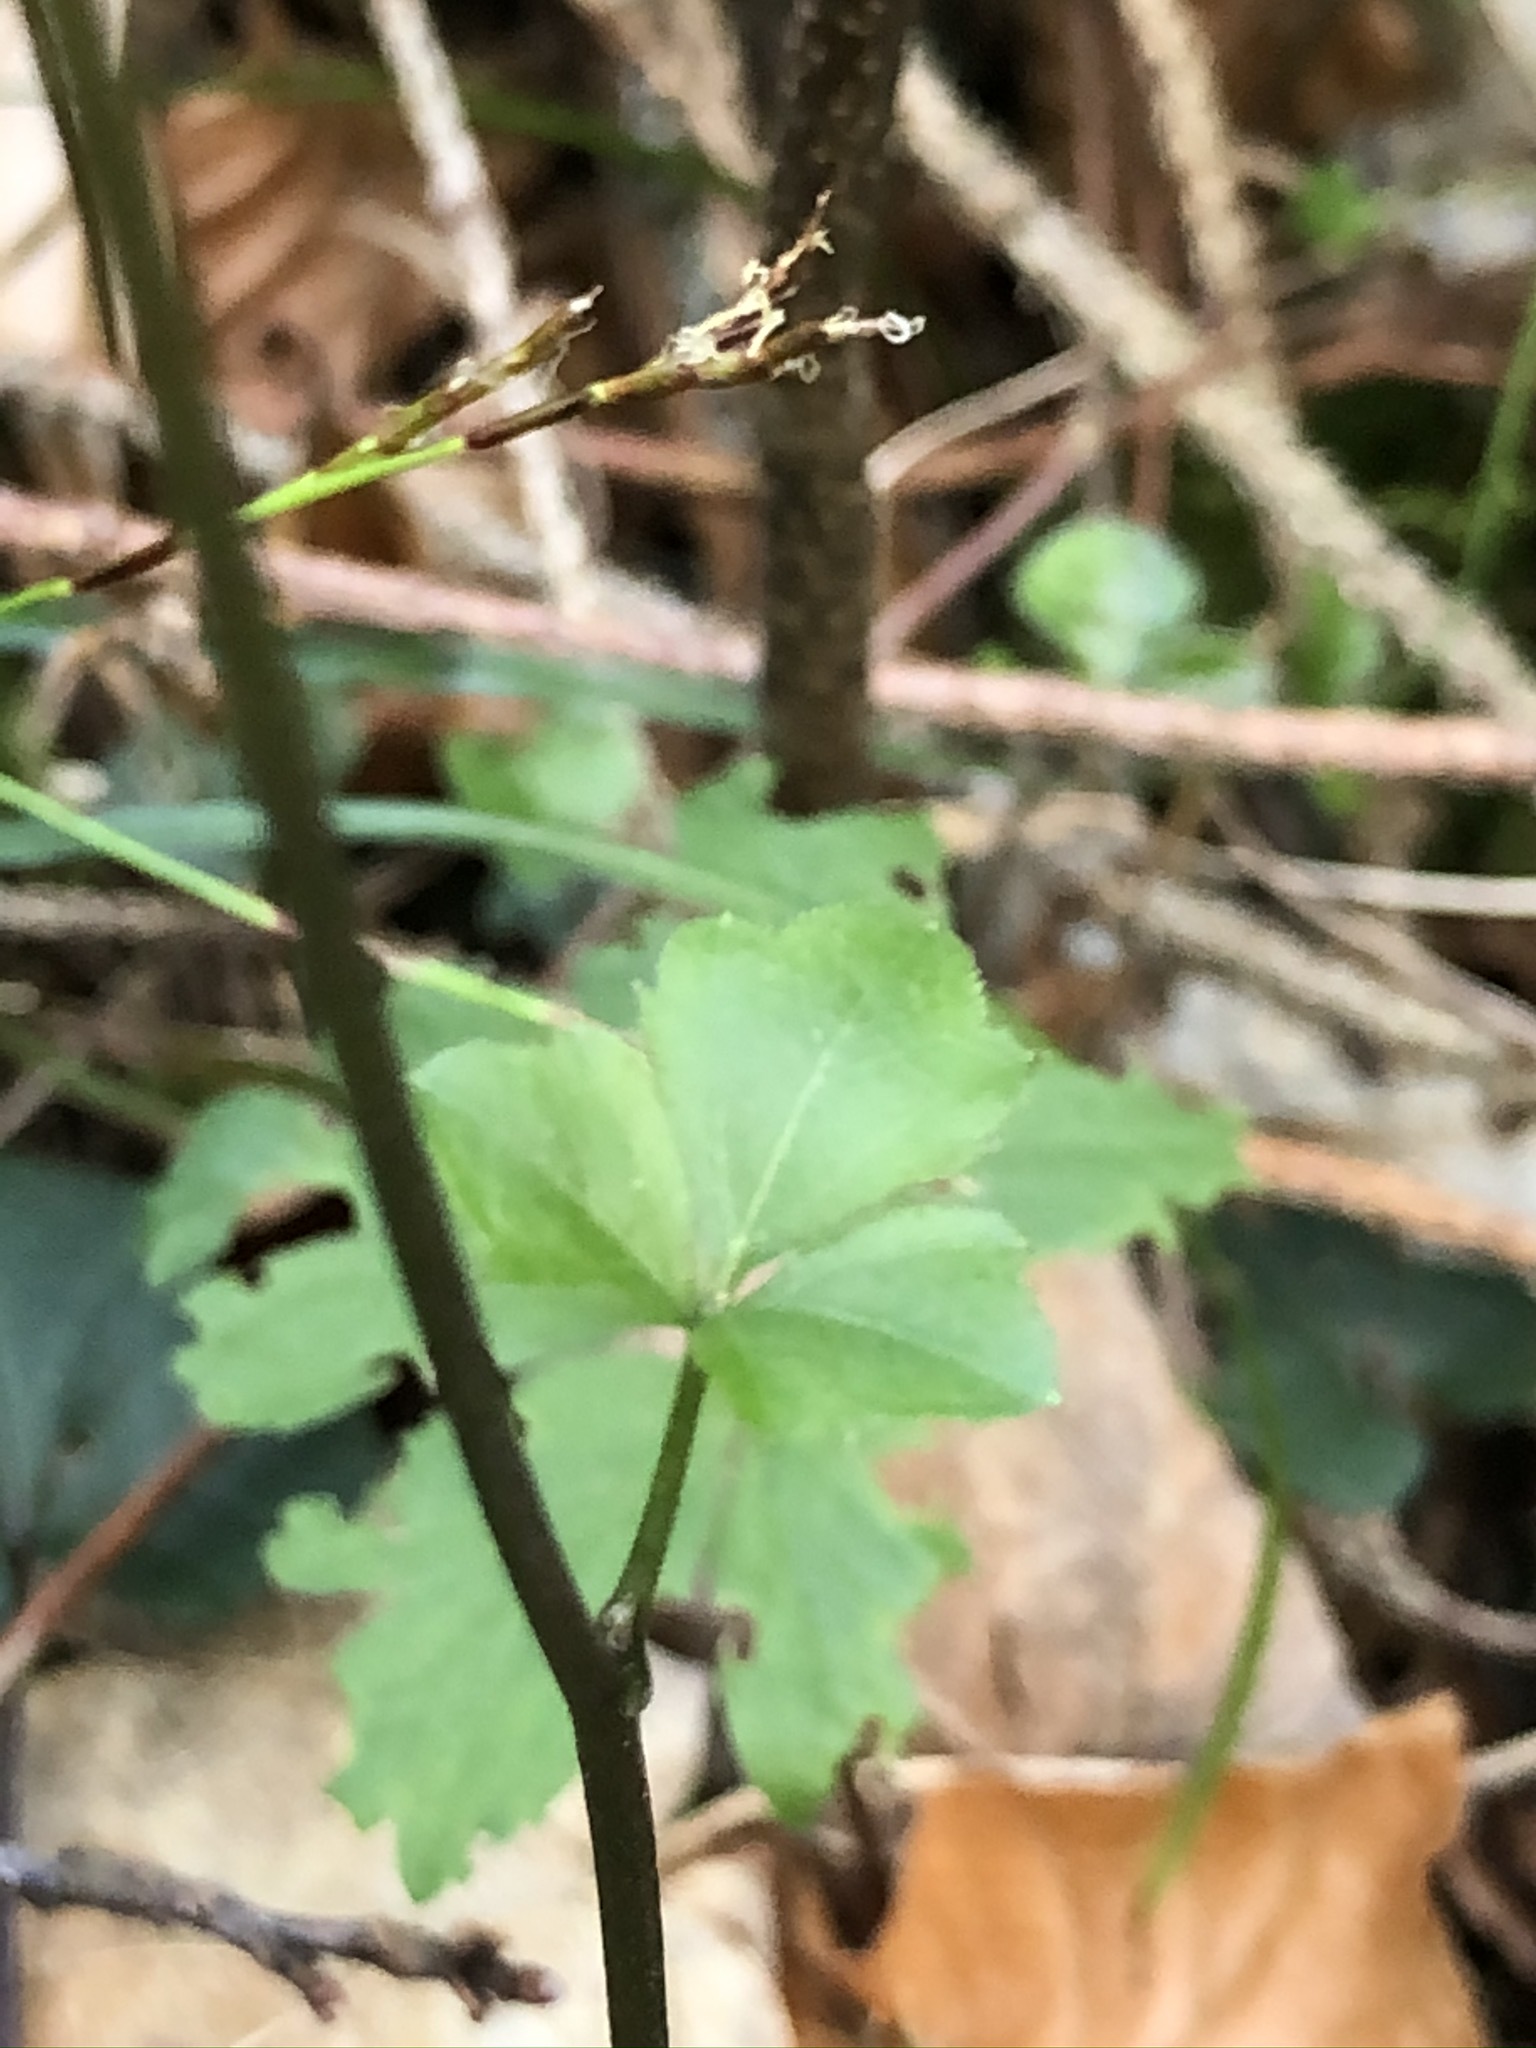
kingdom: Plantae
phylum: Tracheophyta
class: Magnoliopsida
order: Brassicales
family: Brassicaceae
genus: Cardamine
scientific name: Cardamine trifolia
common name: Trefoil cress
